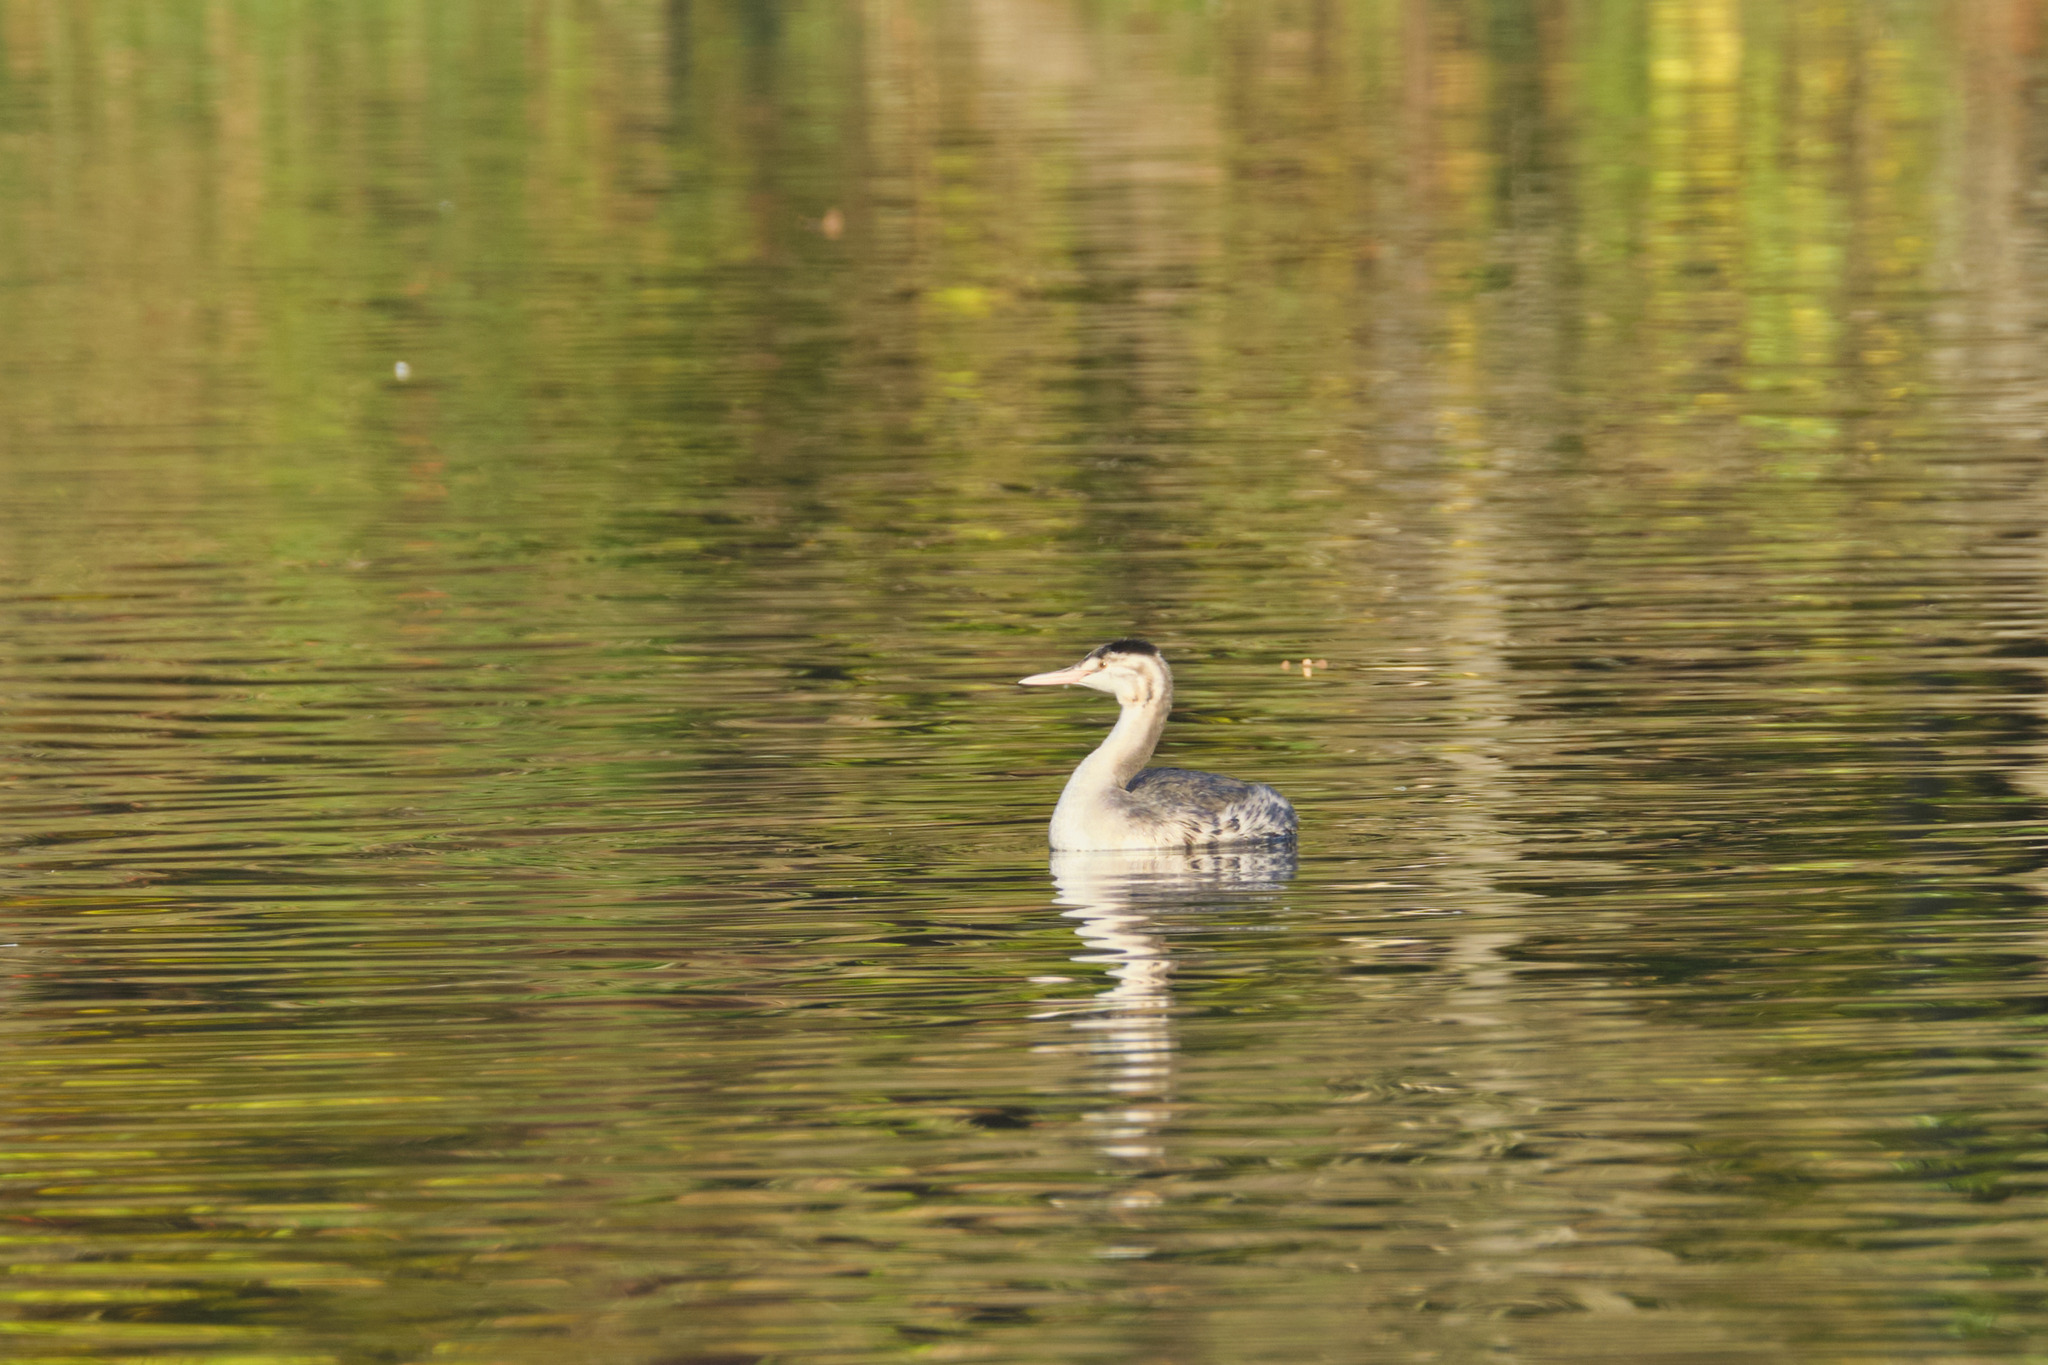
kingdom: Animalia
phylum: Chordata
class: Aves
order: Podicipediformes
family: Podicipedidae
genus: Podiceps
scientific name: Podiceps cristatus
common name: Great crested grebe
